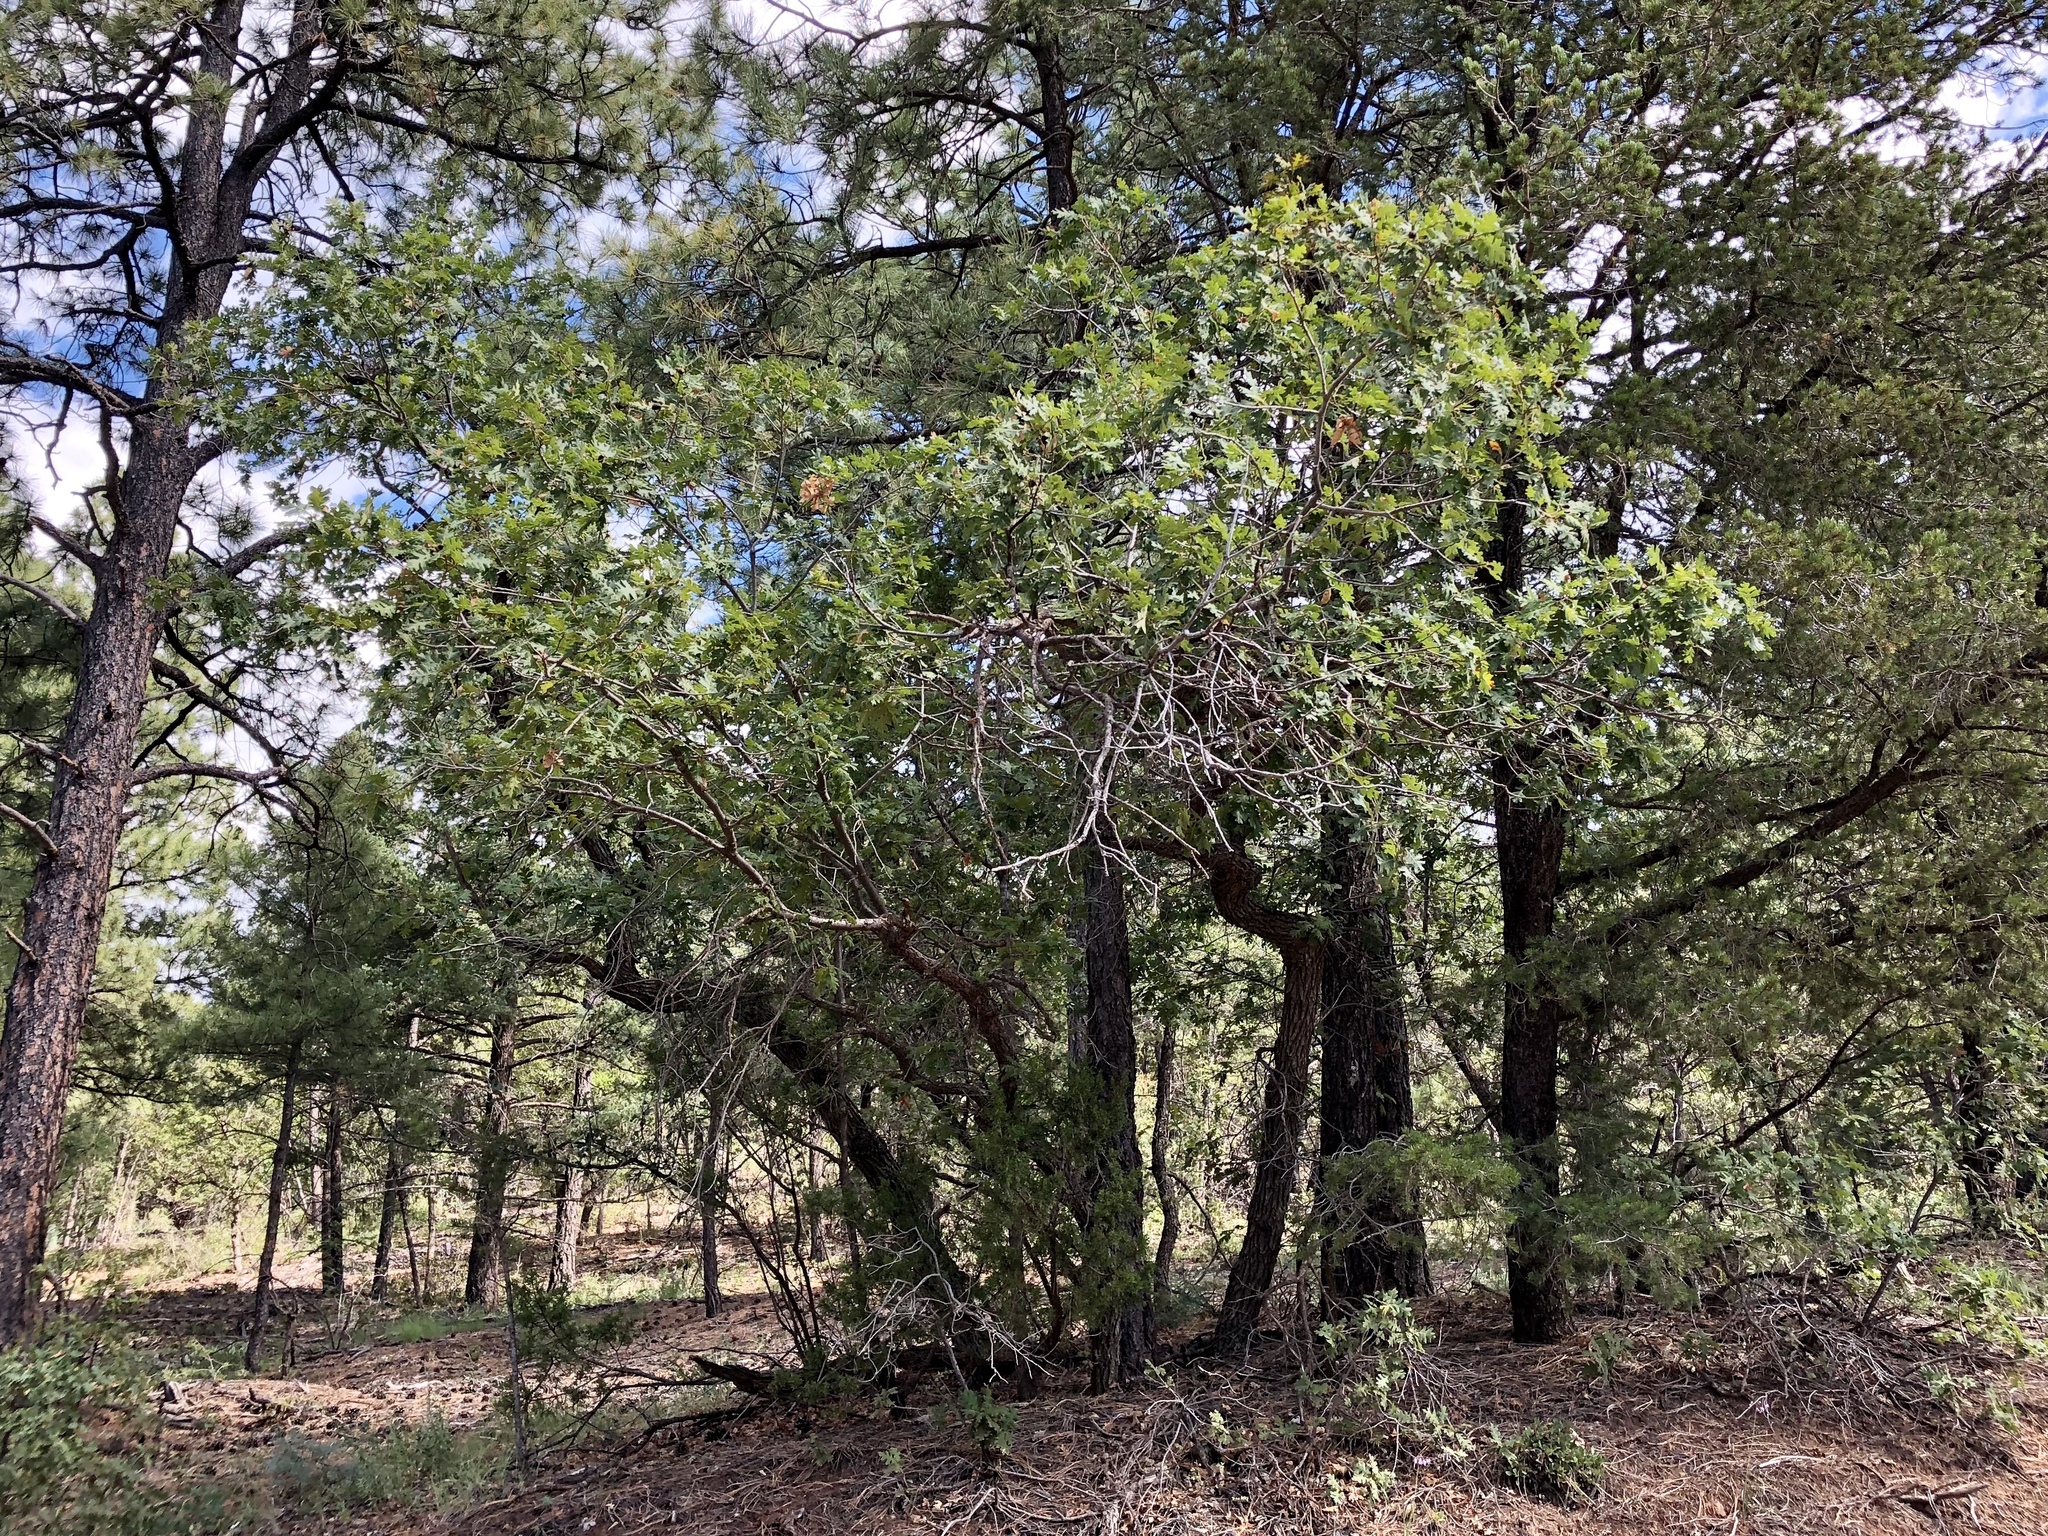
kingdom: Plantae
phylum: Tracheophyta
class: Magnoliopsida
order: Fagales
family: Fagaceae
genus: Quercus
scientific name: Quercus gambelii
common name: Gambel oak
